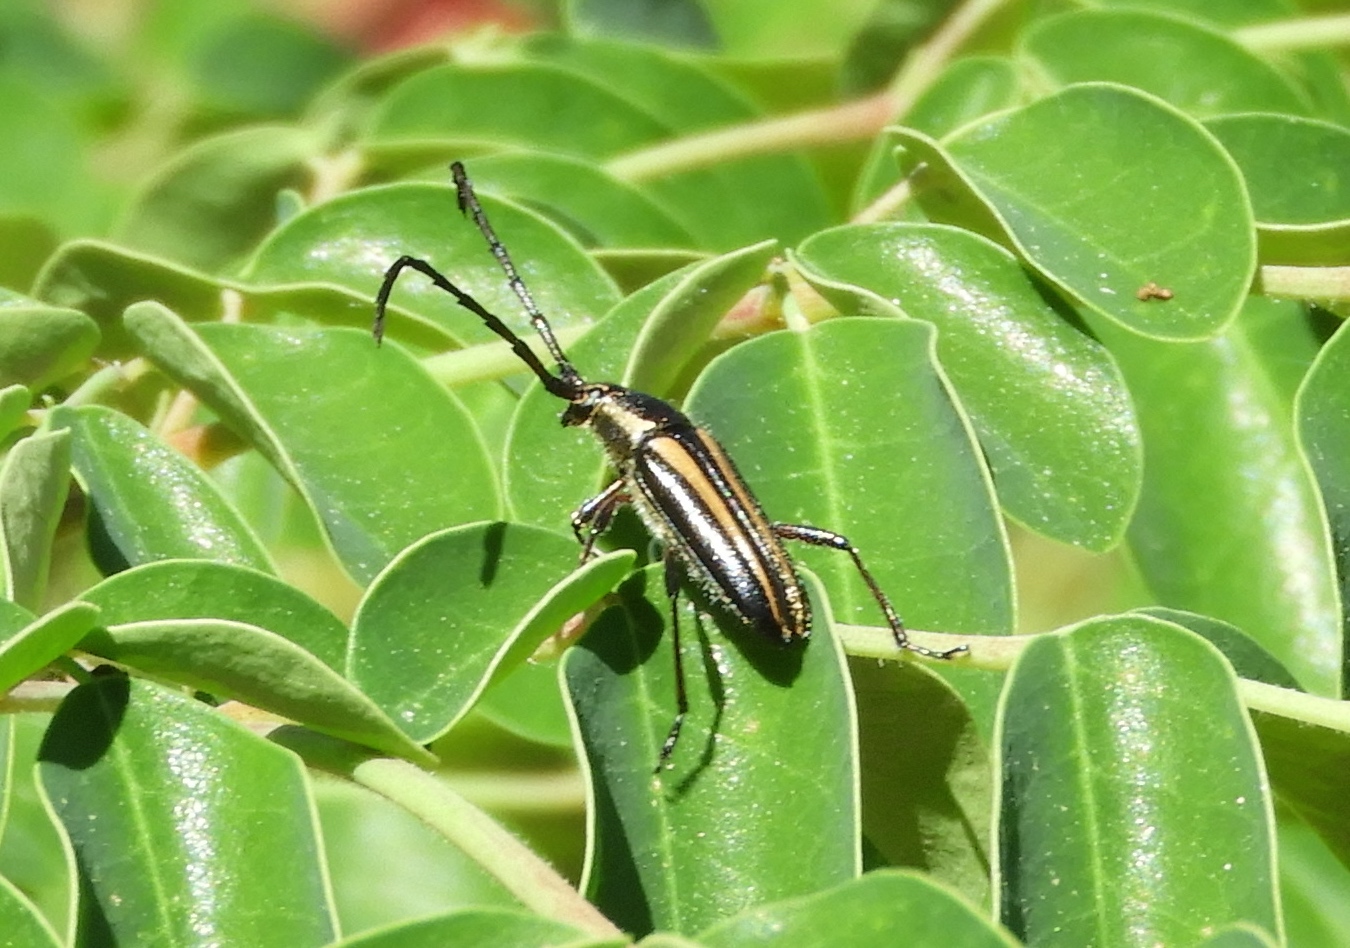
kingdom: Animalia
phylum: Arthropoda
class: Insecta
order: Coleoptera
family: Cerambycidae
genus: Sphaenothecus
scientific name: Sphaenothecus
